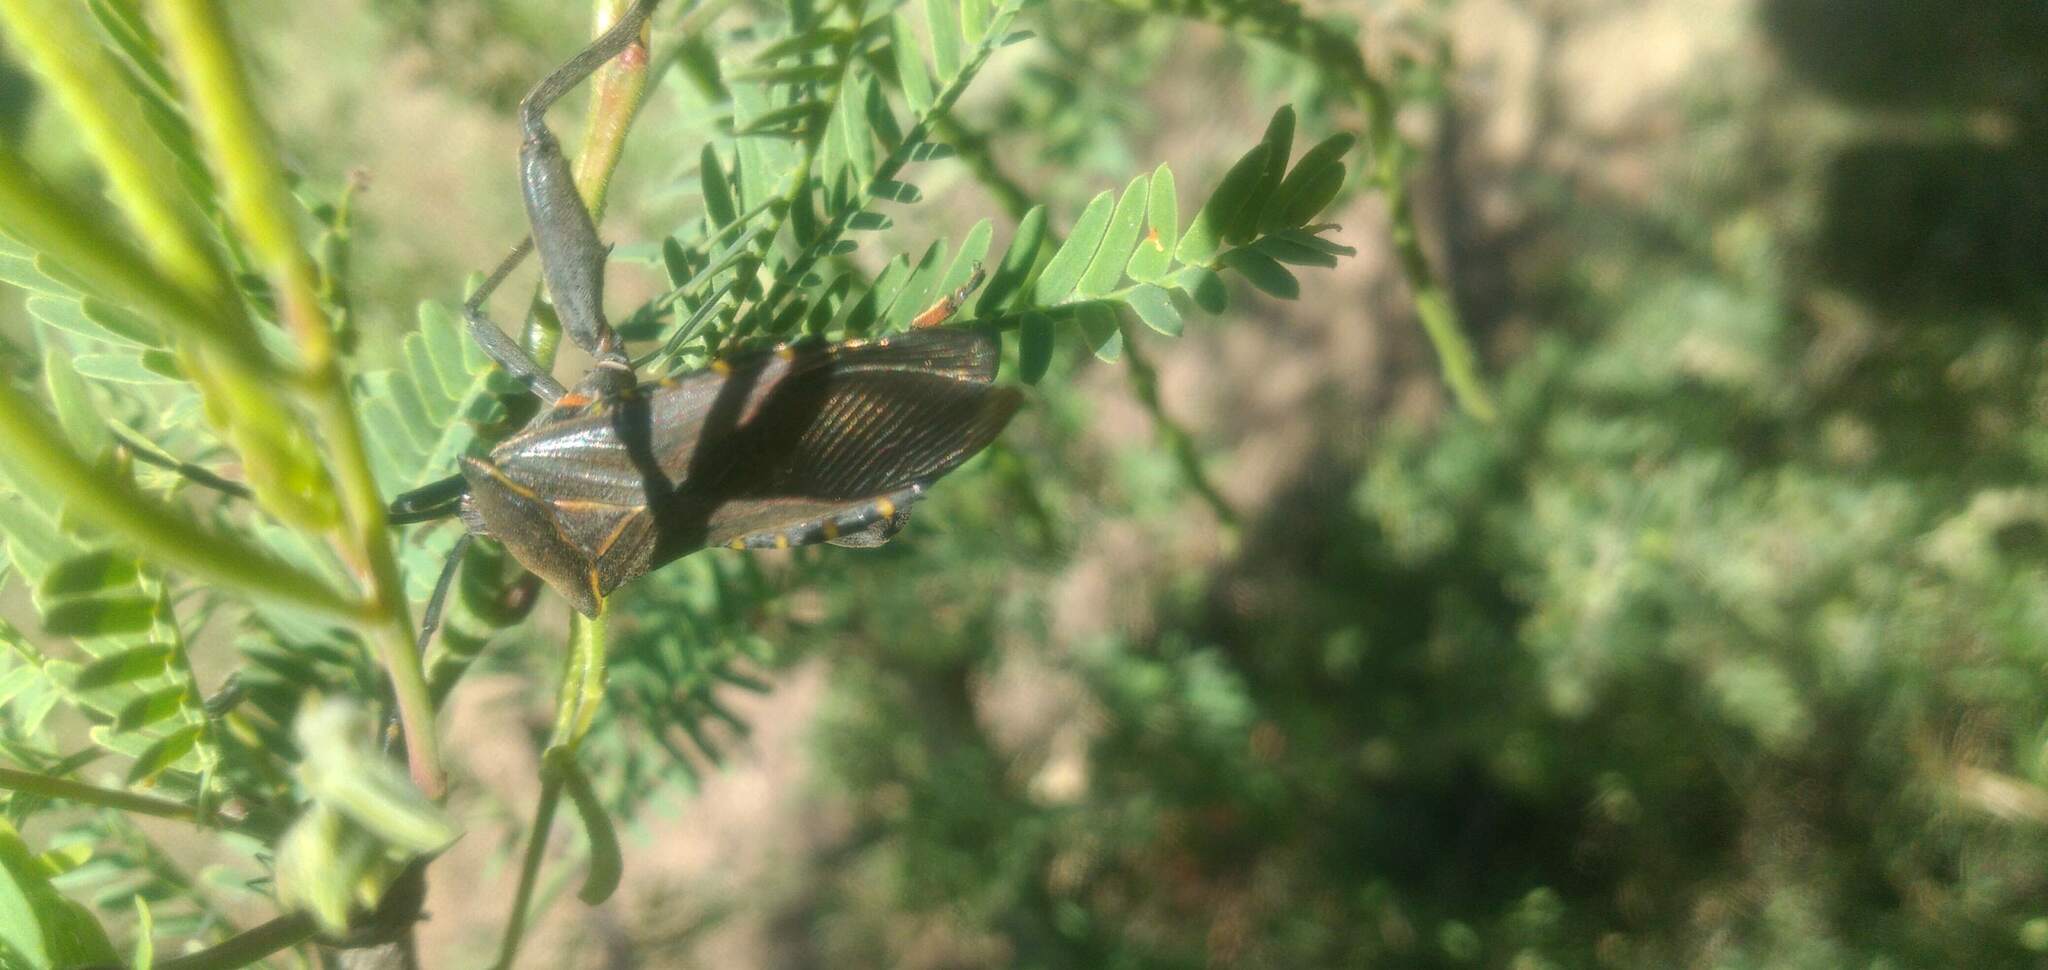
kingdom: Animalia
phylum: Arthropoda
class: Insecta
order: Hemiptera
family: Coreidae
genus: Pachylis
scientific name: Pachylis argentinus
